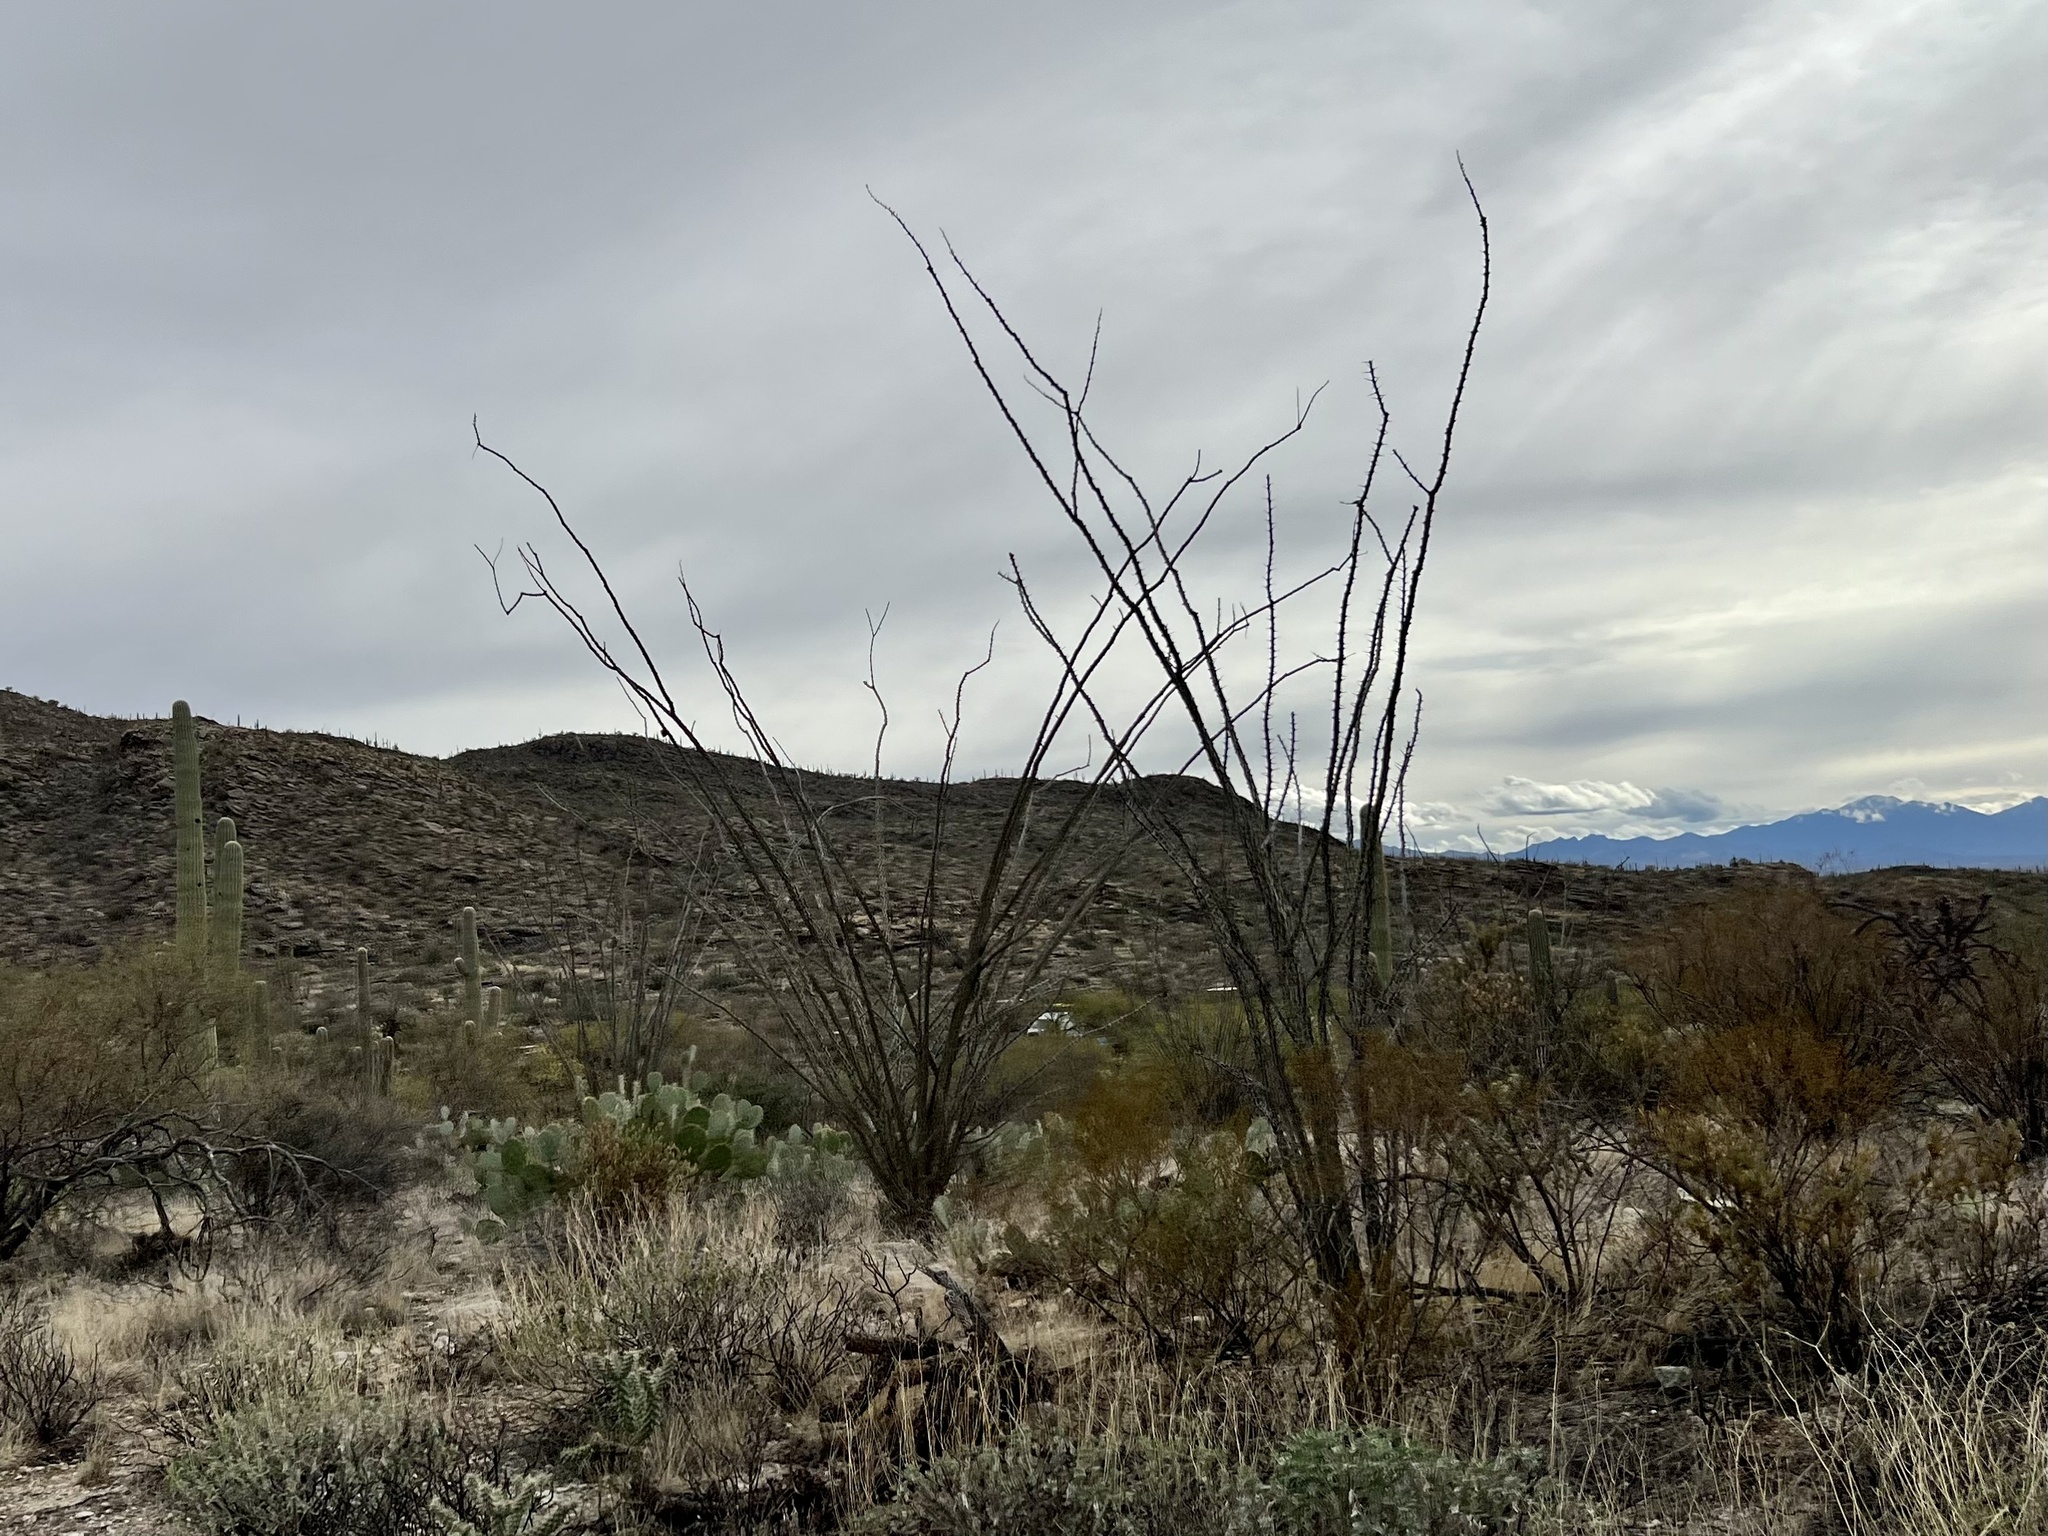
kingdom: Plantae
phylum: Tracheophyta
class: Magnoliopsida
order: Ericales
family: Fouquieriaceae
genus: Fouquieria
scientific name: Fouquieria splendens
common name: Vine-cactus
